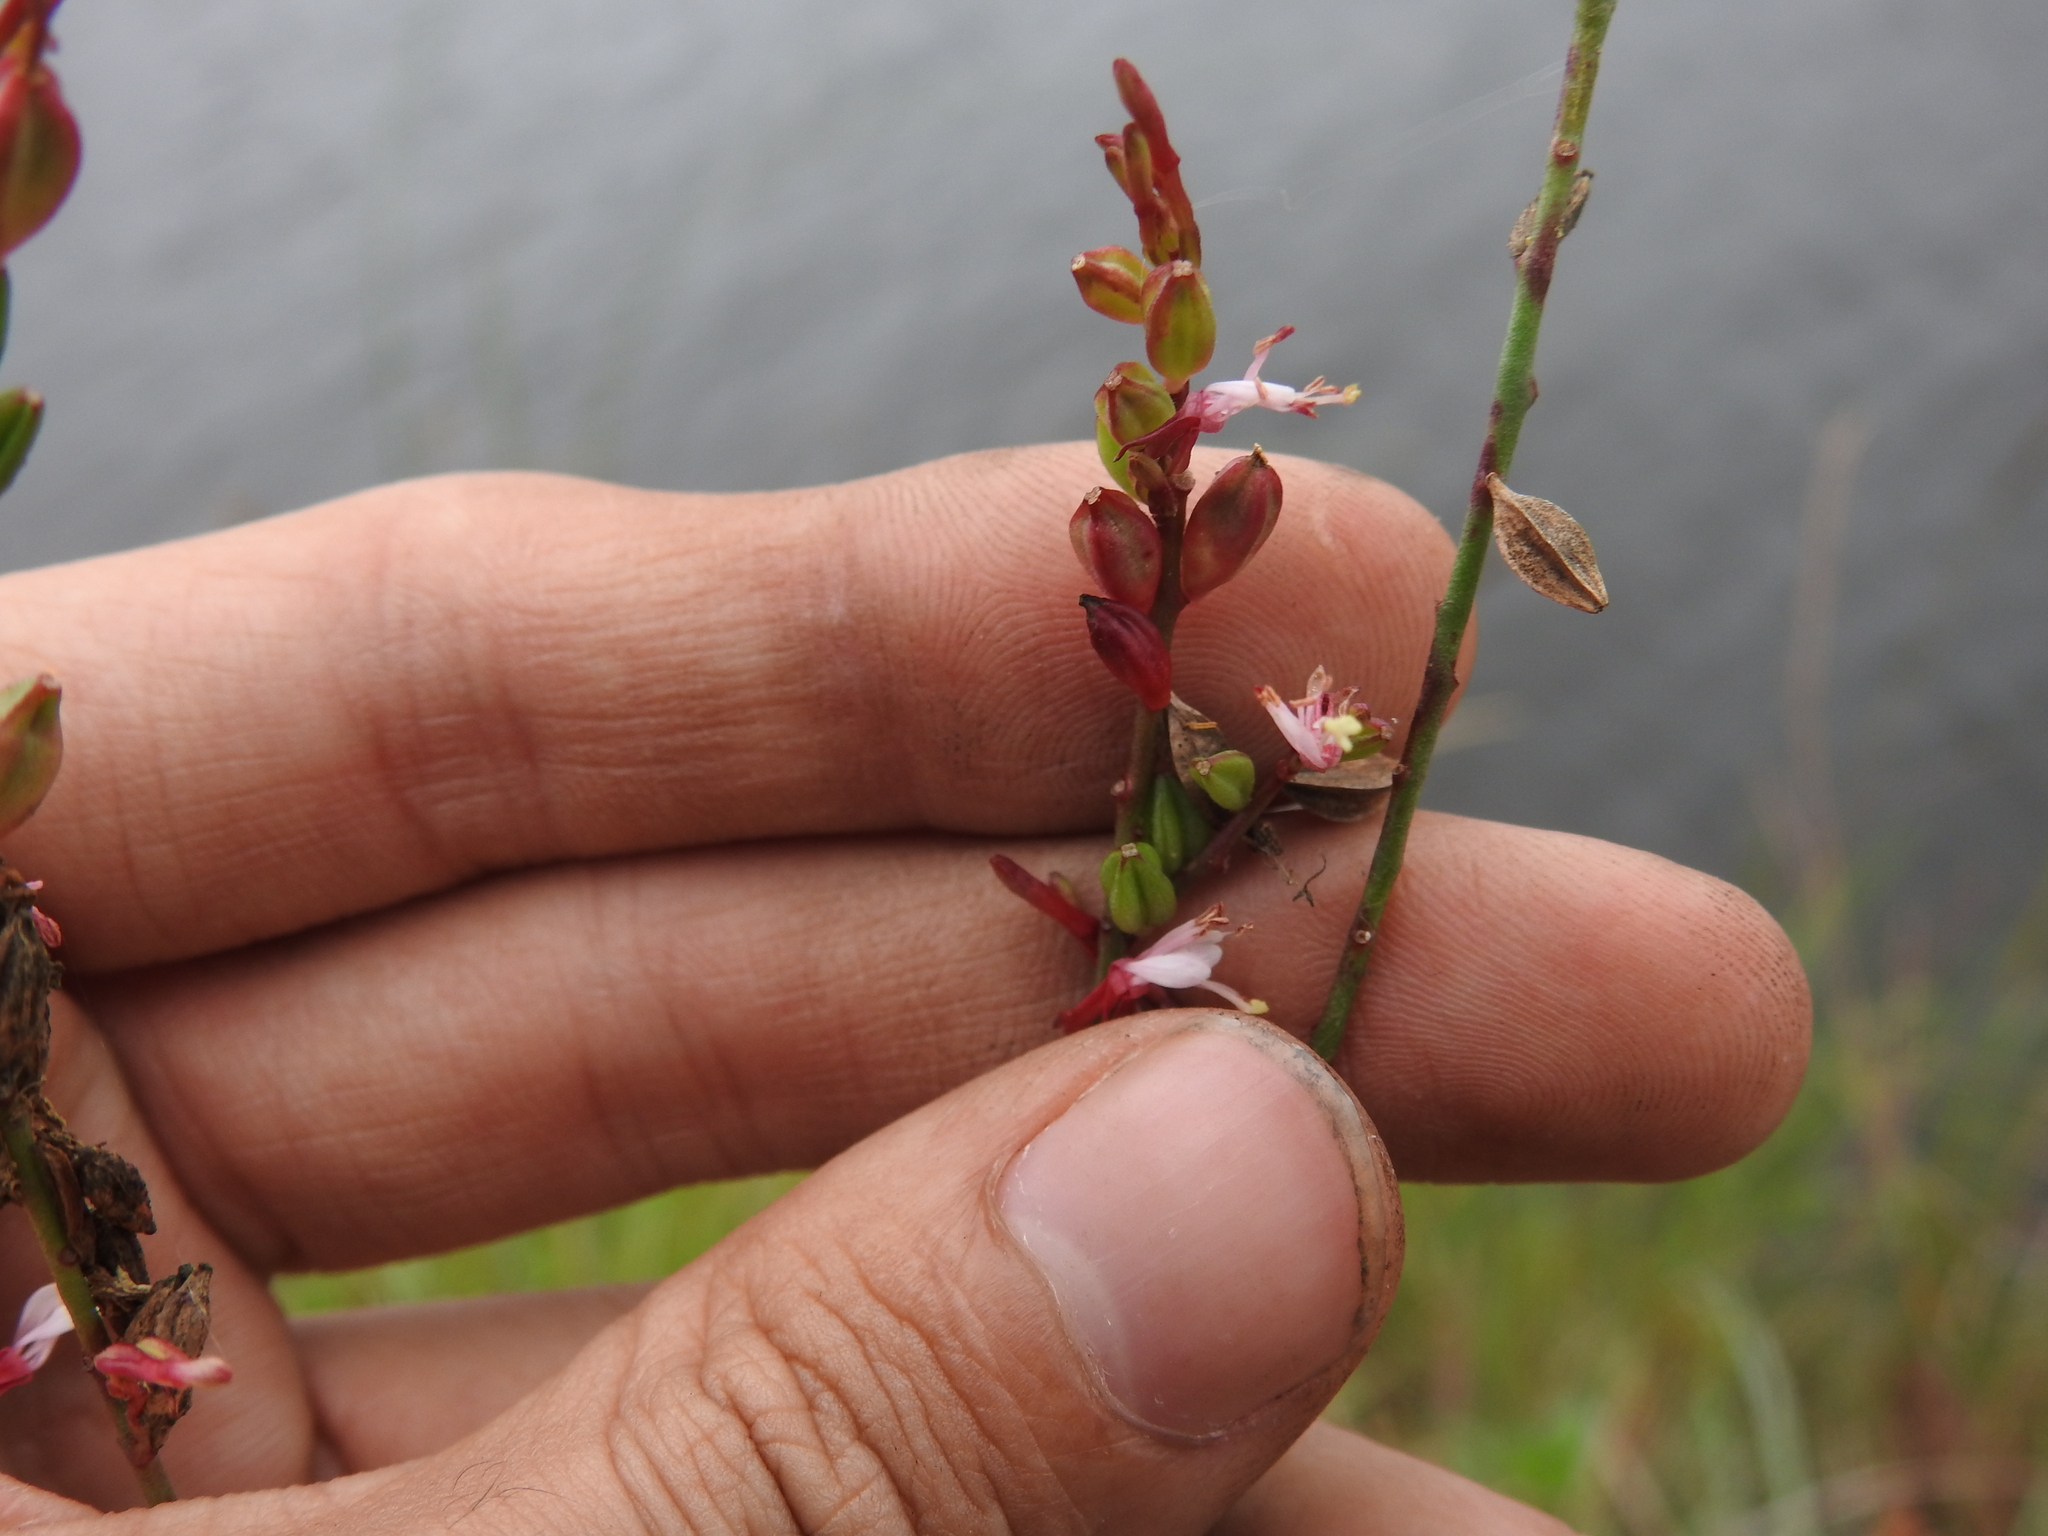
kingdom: Plantae
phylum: Tracheophyta
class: Magnoliopsida
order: Myrtales
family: Onagraceae
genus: Oenothera
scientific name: Oenothera simulans
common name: Southern beeblossom
